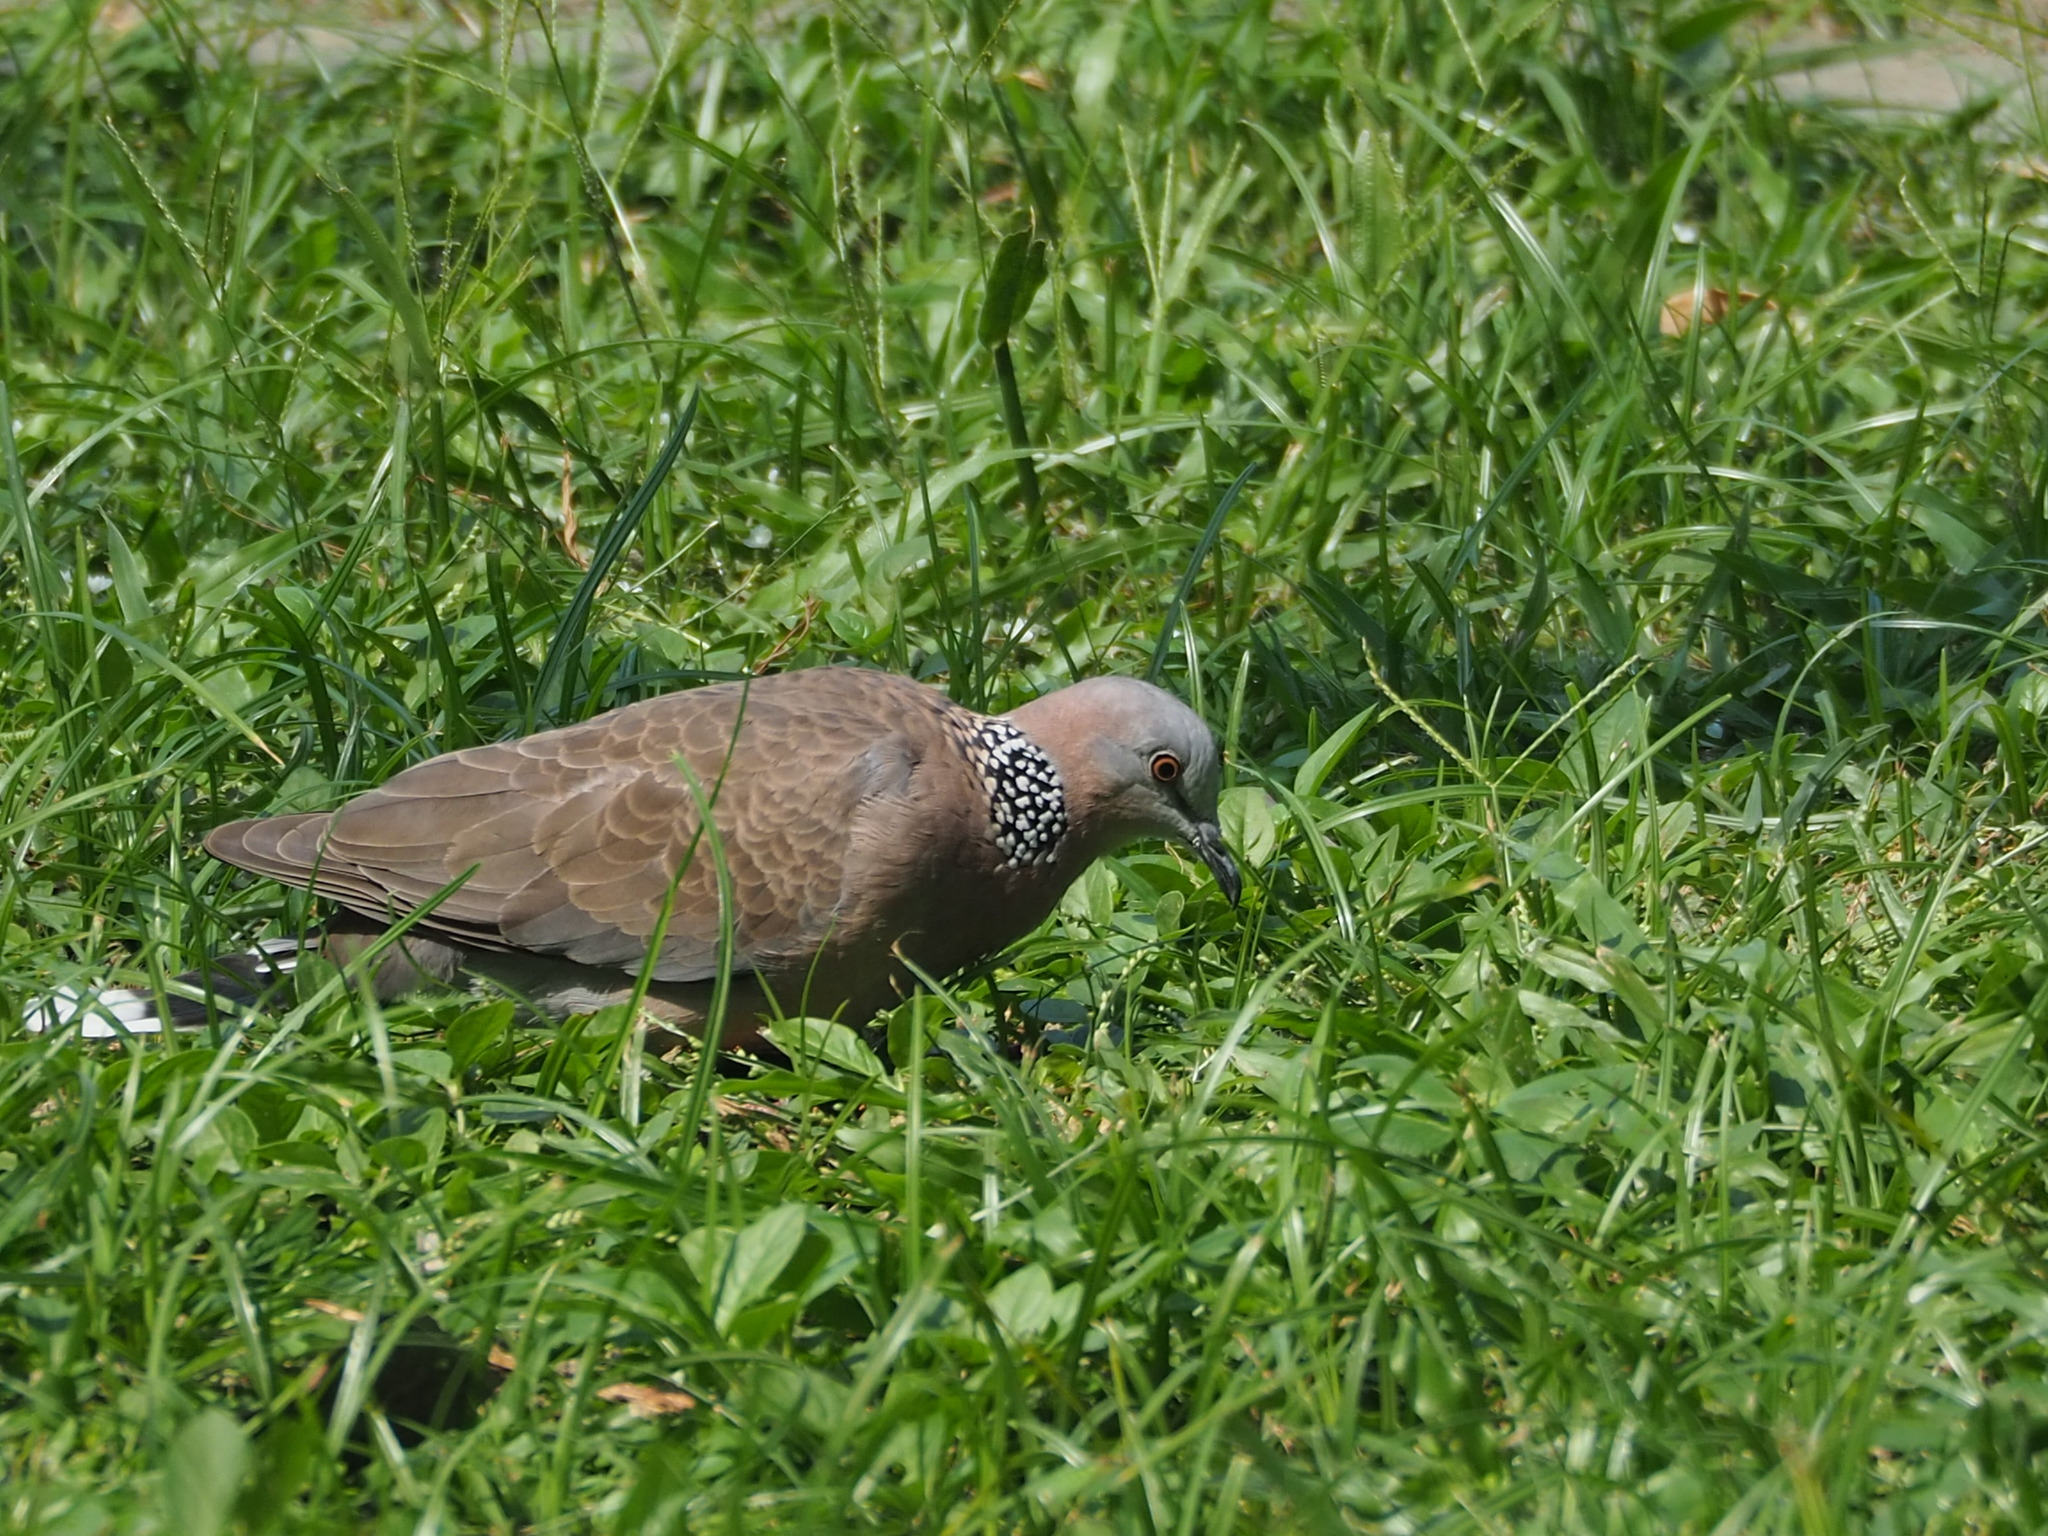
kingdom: Animalia
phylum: Chordata
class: Aves
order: Columbiformes
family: Columbidae
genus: Spilopelia
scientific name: Spilopelia chinensis
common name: Spotted dove
